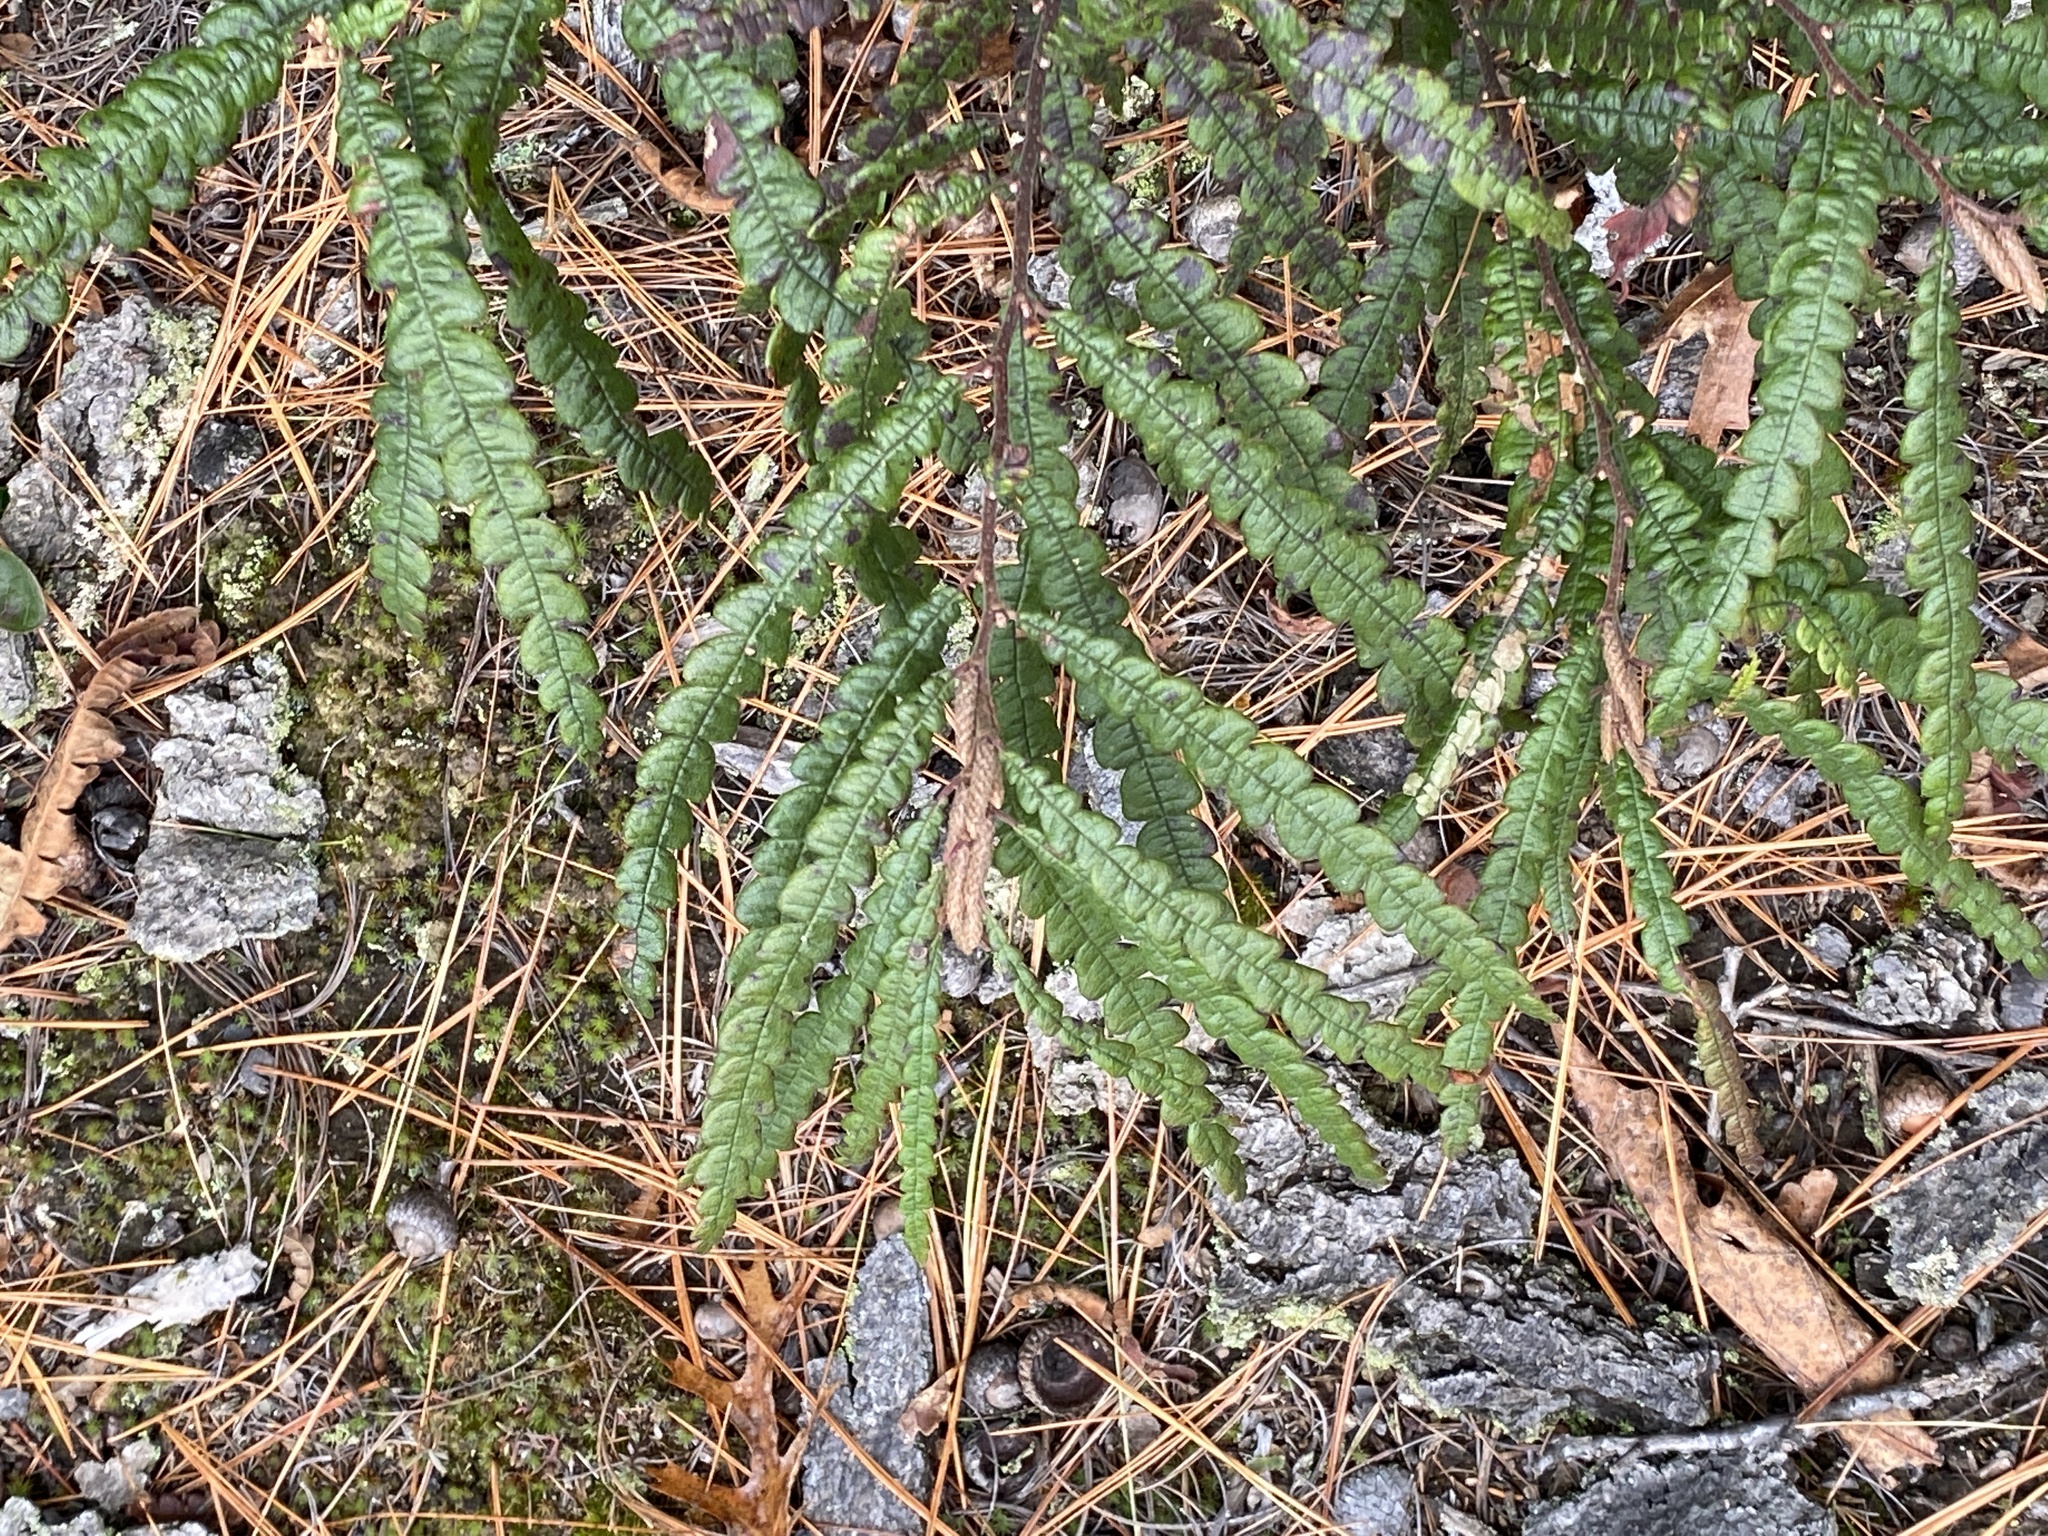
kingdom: Plantae
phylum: Tracheophyta
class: Magnoliopsida
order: Fagales
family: Myricaceae
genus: Comptonia
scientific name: Comptonia peregrina
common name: Sweet-fern
